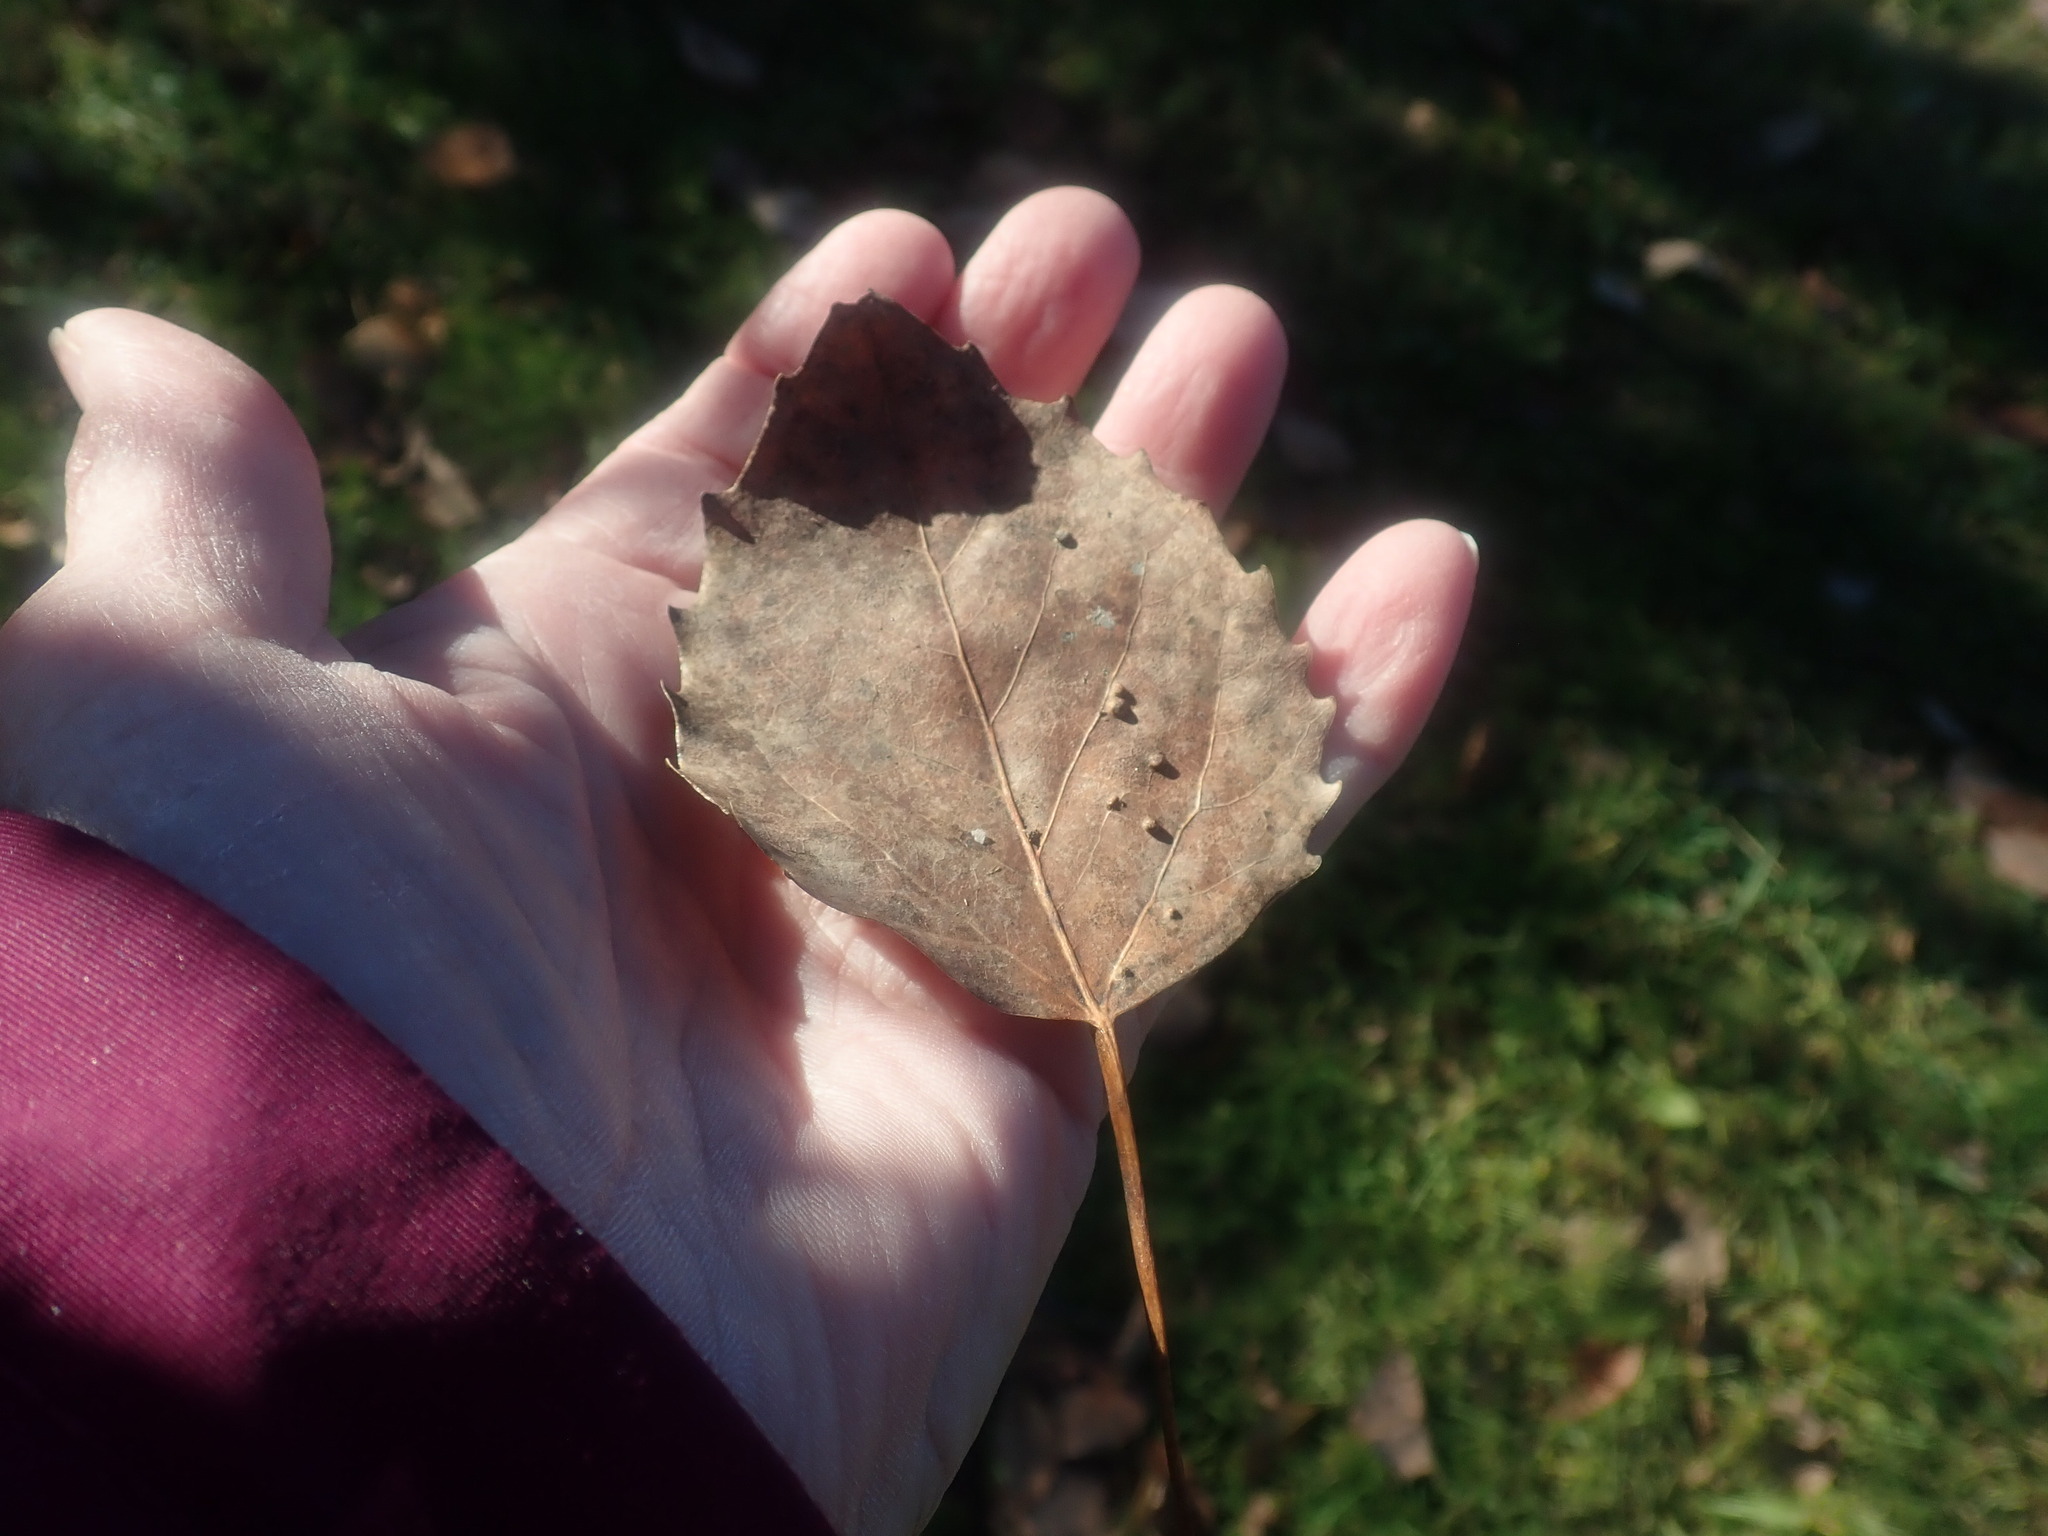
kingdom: Plantae
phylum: Tracheophyta
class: Magnoliopsida
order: Malpighiales
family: Salicaceae
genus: Populus
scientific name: Populus grandidentata
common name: Bigtooth aspen
